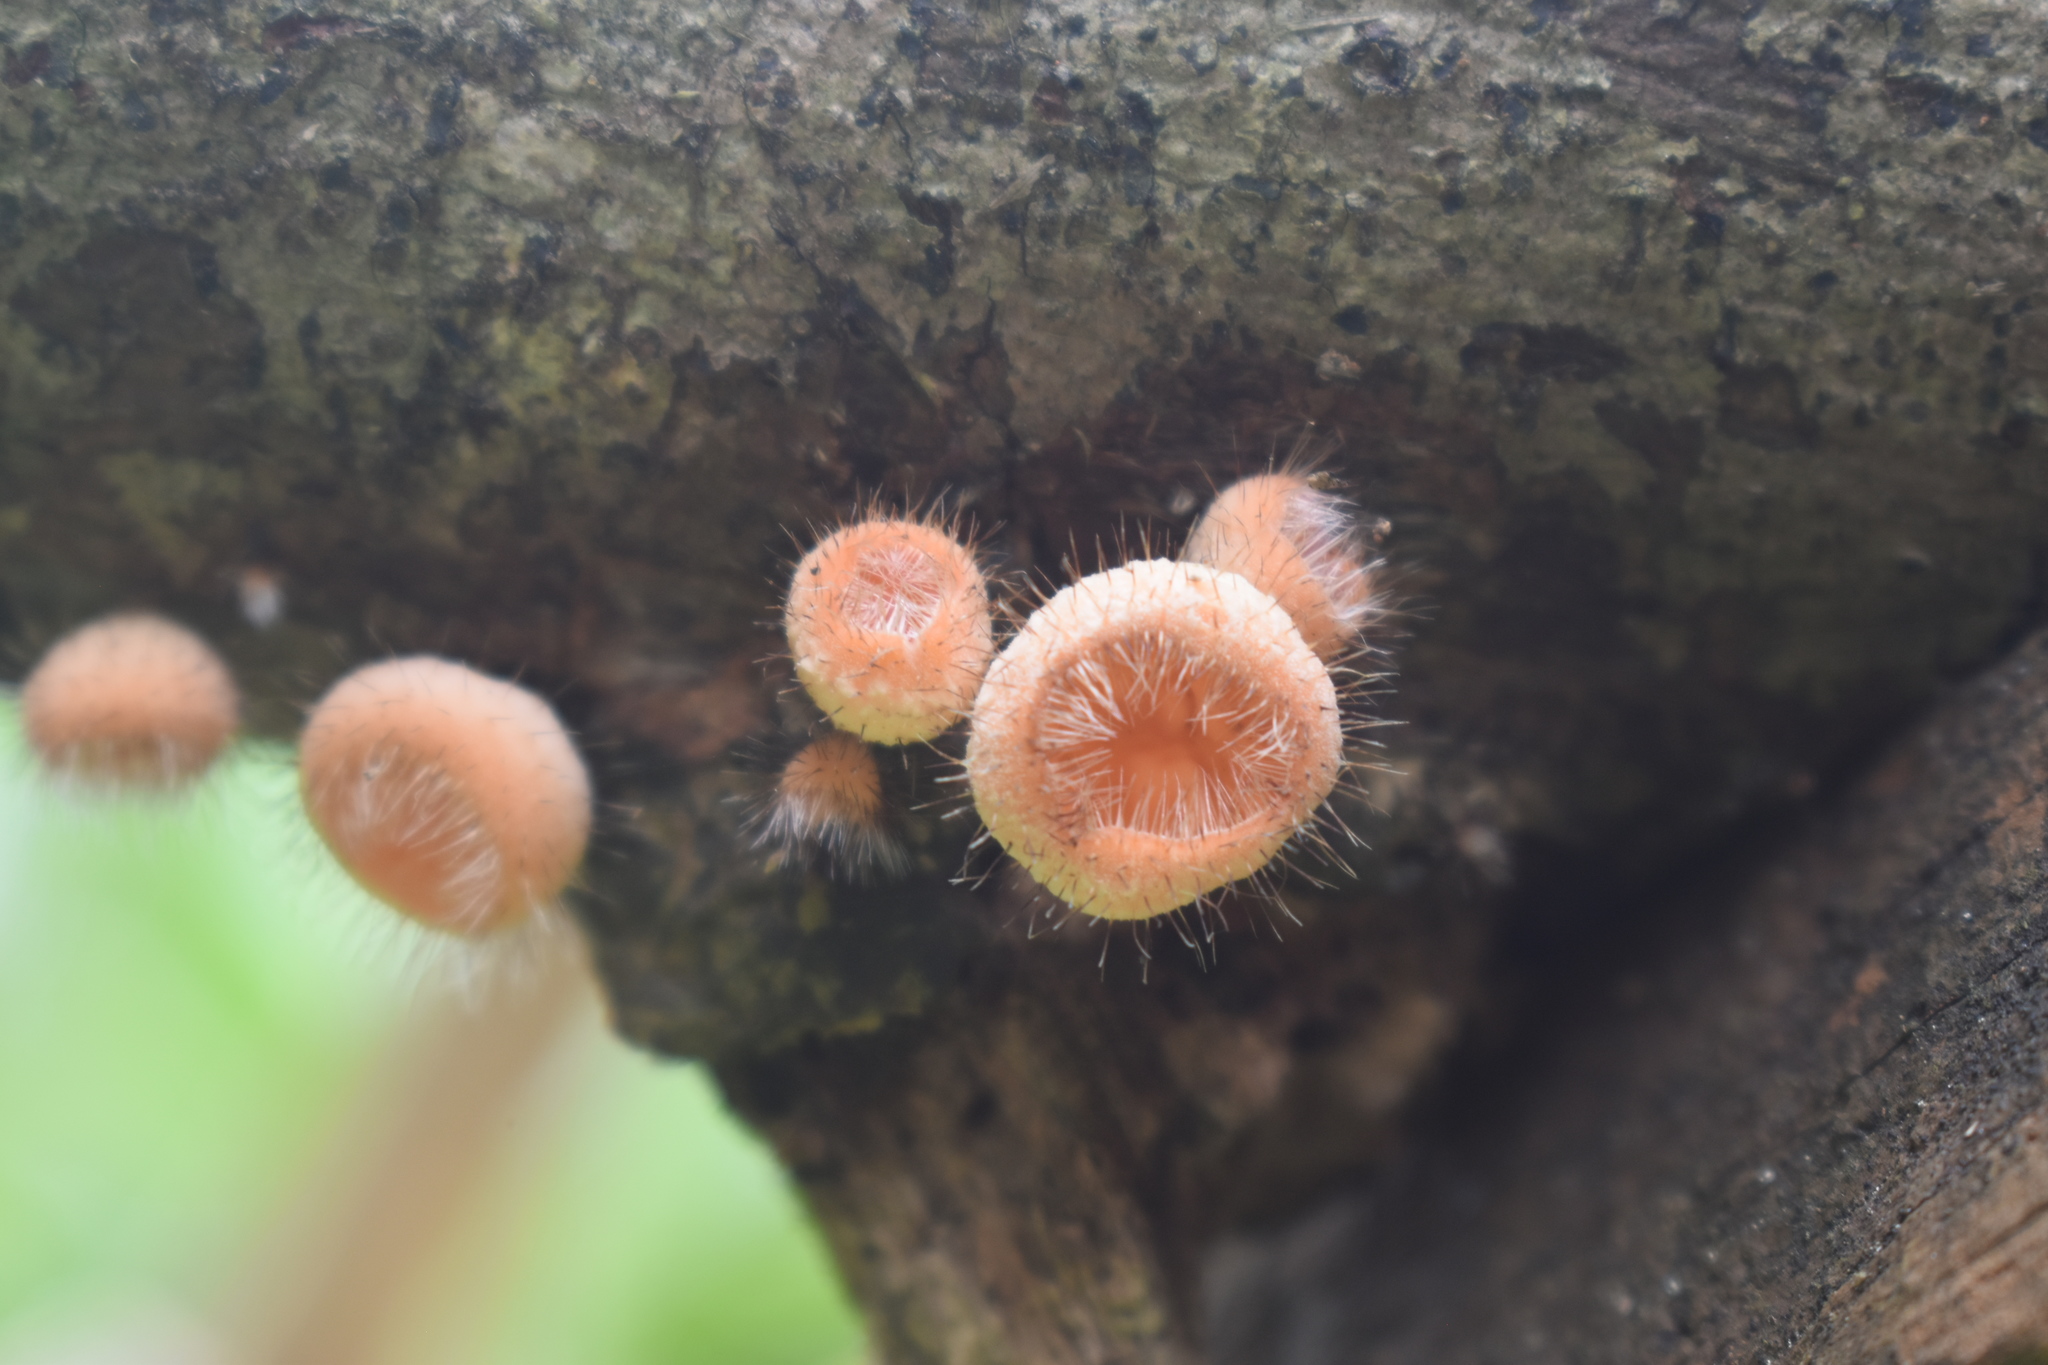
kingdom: Fungi
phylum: Ascomycota
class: Pezizomycetes
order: Pezizales
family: Sarcoscyphaceae
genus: Cookeina
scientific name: Cookeina tricholoma
